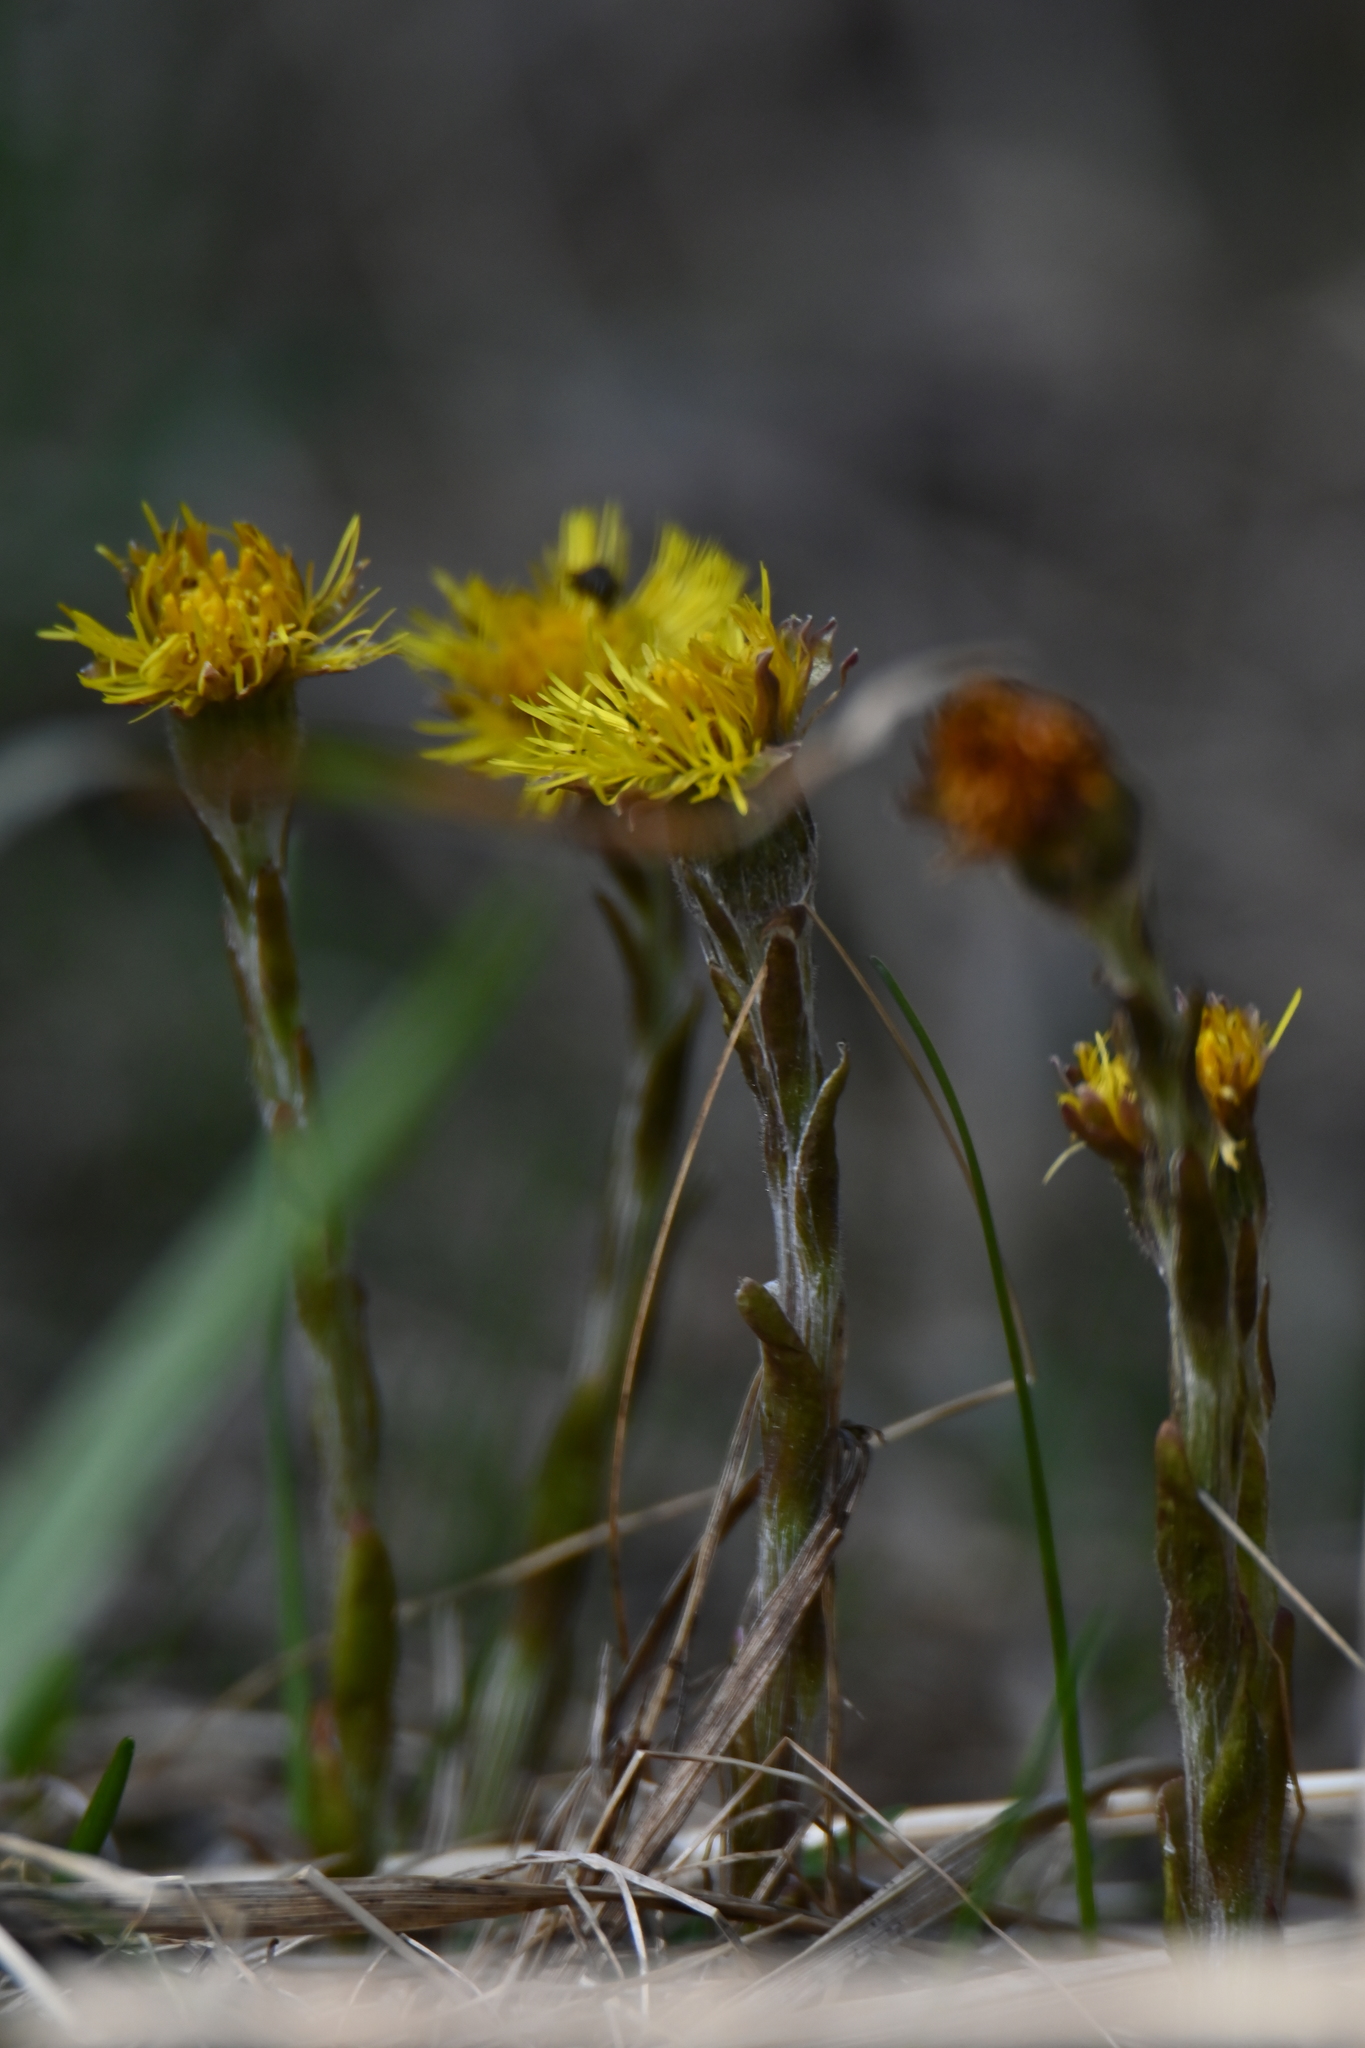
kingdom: Plantae
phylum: Tracheophyta
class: Magnoliopsida
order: Asterales
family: Asteraceae
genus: Tussilago
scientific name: Tussilago farfara
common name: Coltsfoot
